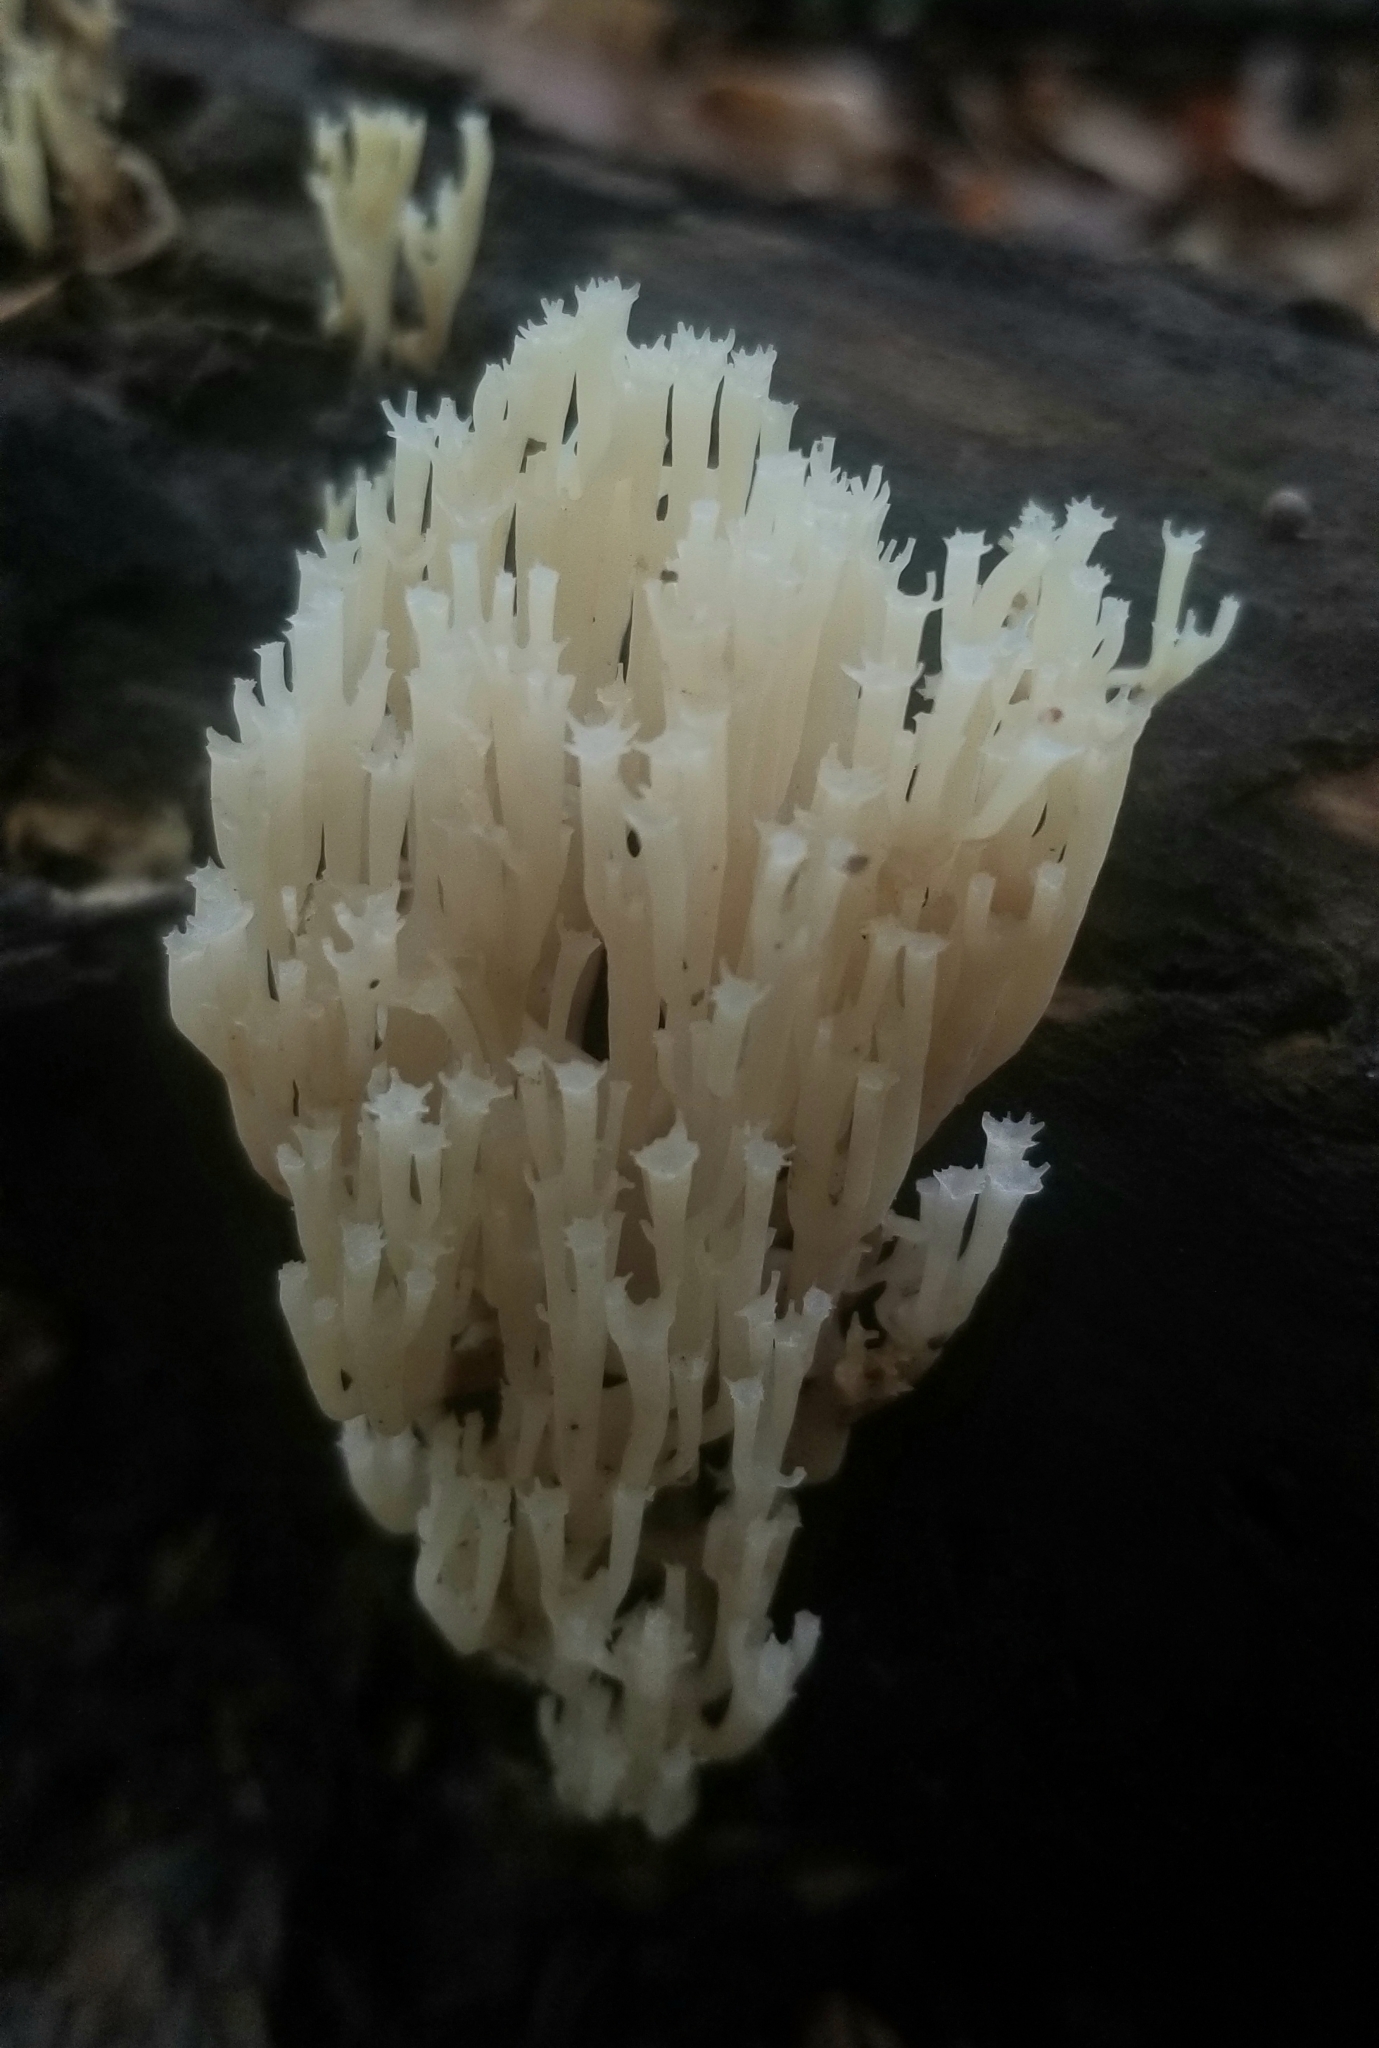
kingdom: Fungi
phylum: Basidiomycota
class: Agaricomycetes
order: Russulales
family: Auriscalpiaceae
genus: Artomyces
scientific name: Artomyces pyxidatus
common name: Crown-tipped coral fungus
